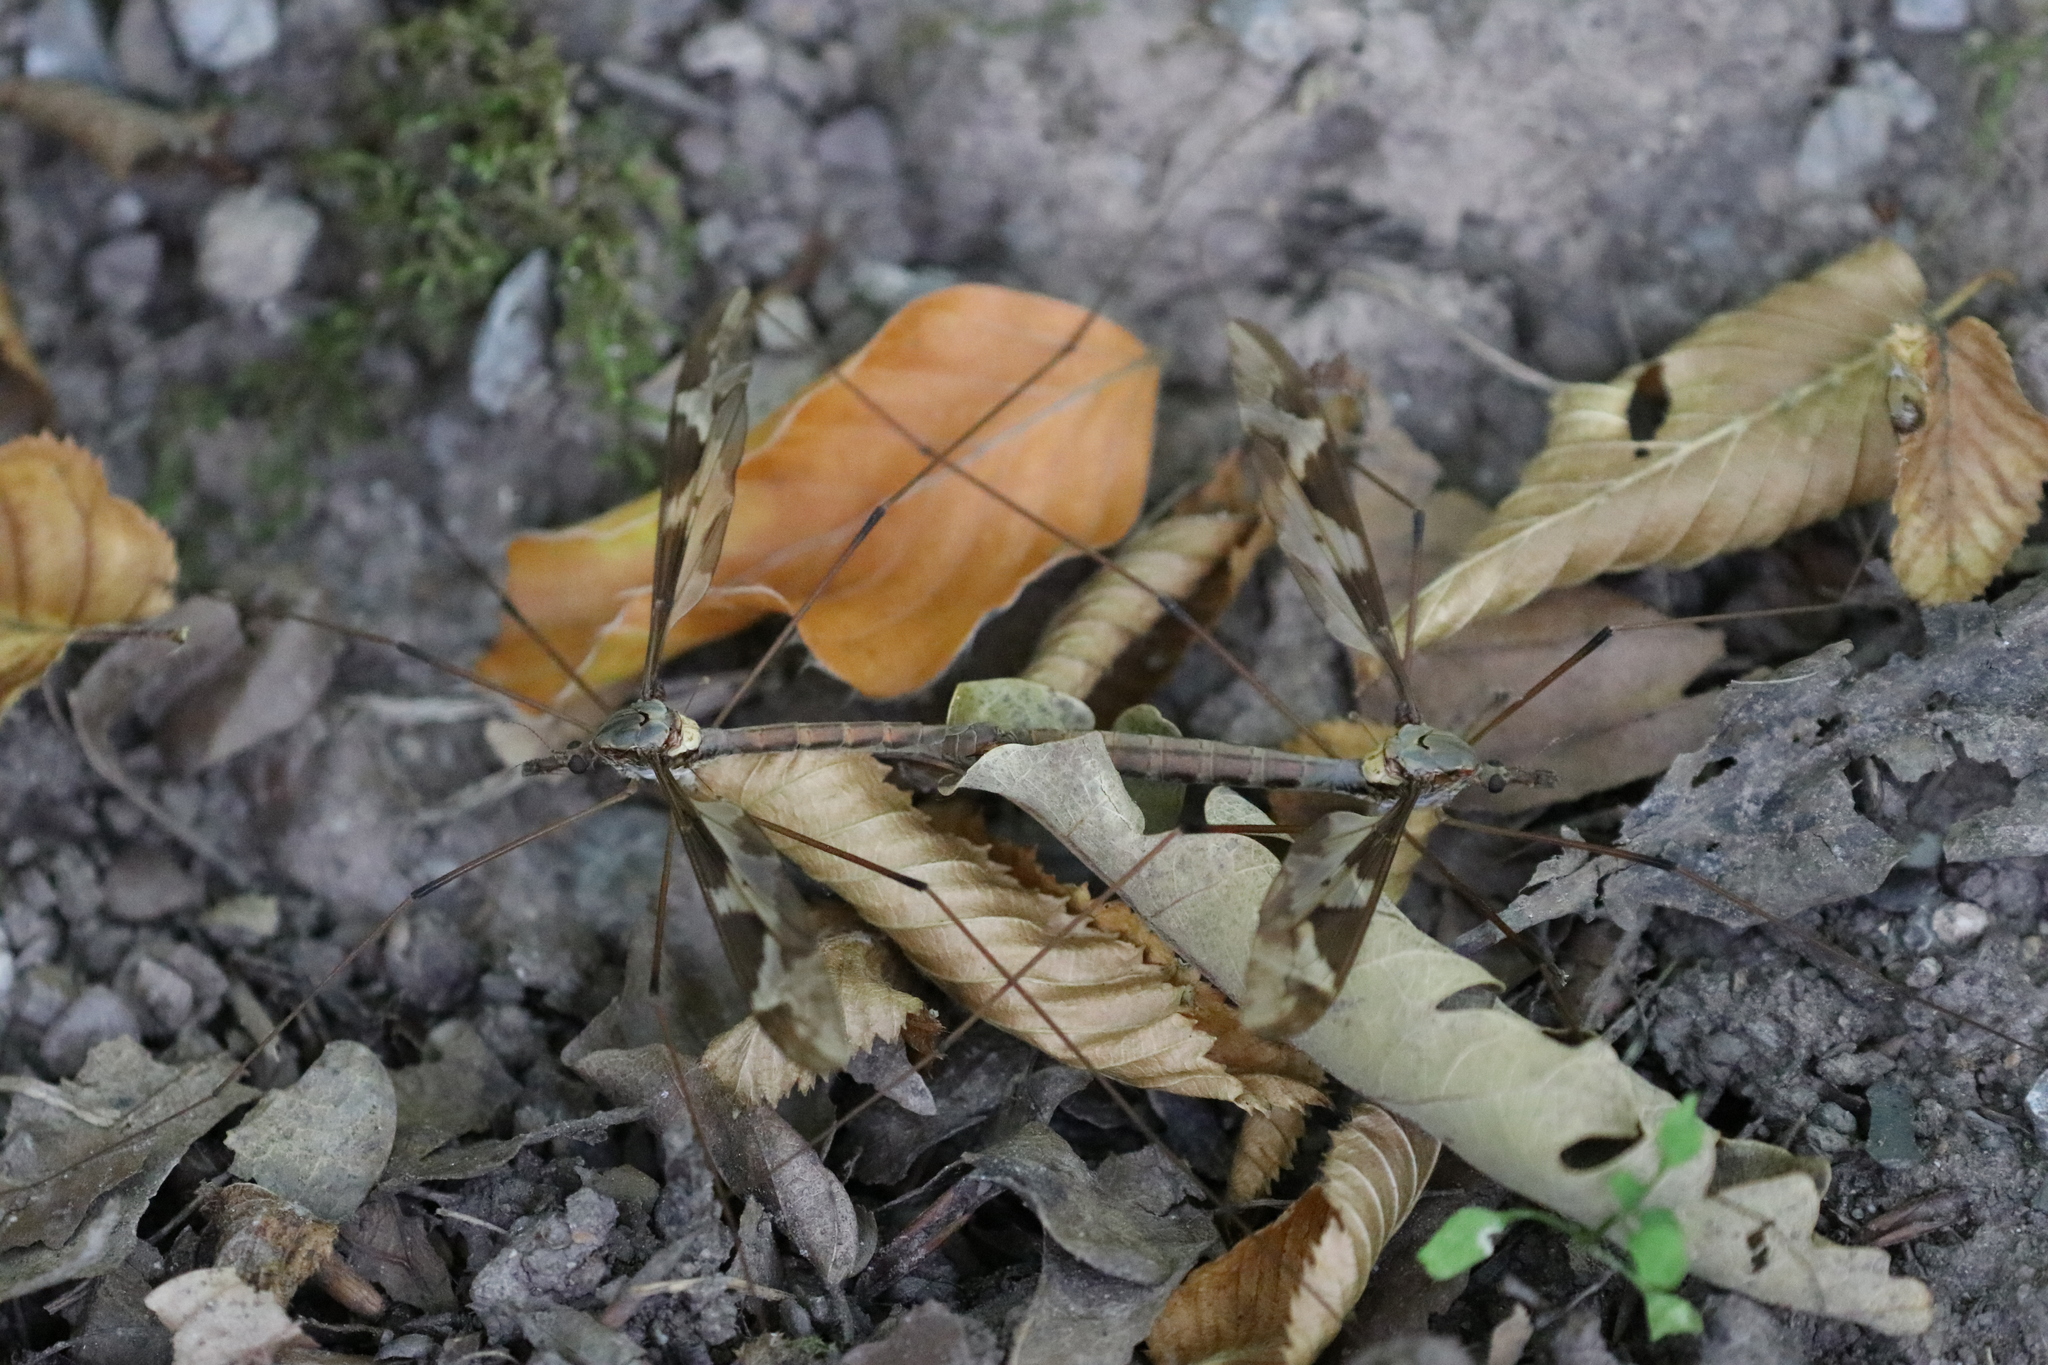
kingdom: Animalia
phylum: Arthropoda
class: Insecta
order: Diptera
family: Tipulidae
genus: Tipula
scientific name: Tipula maxima
